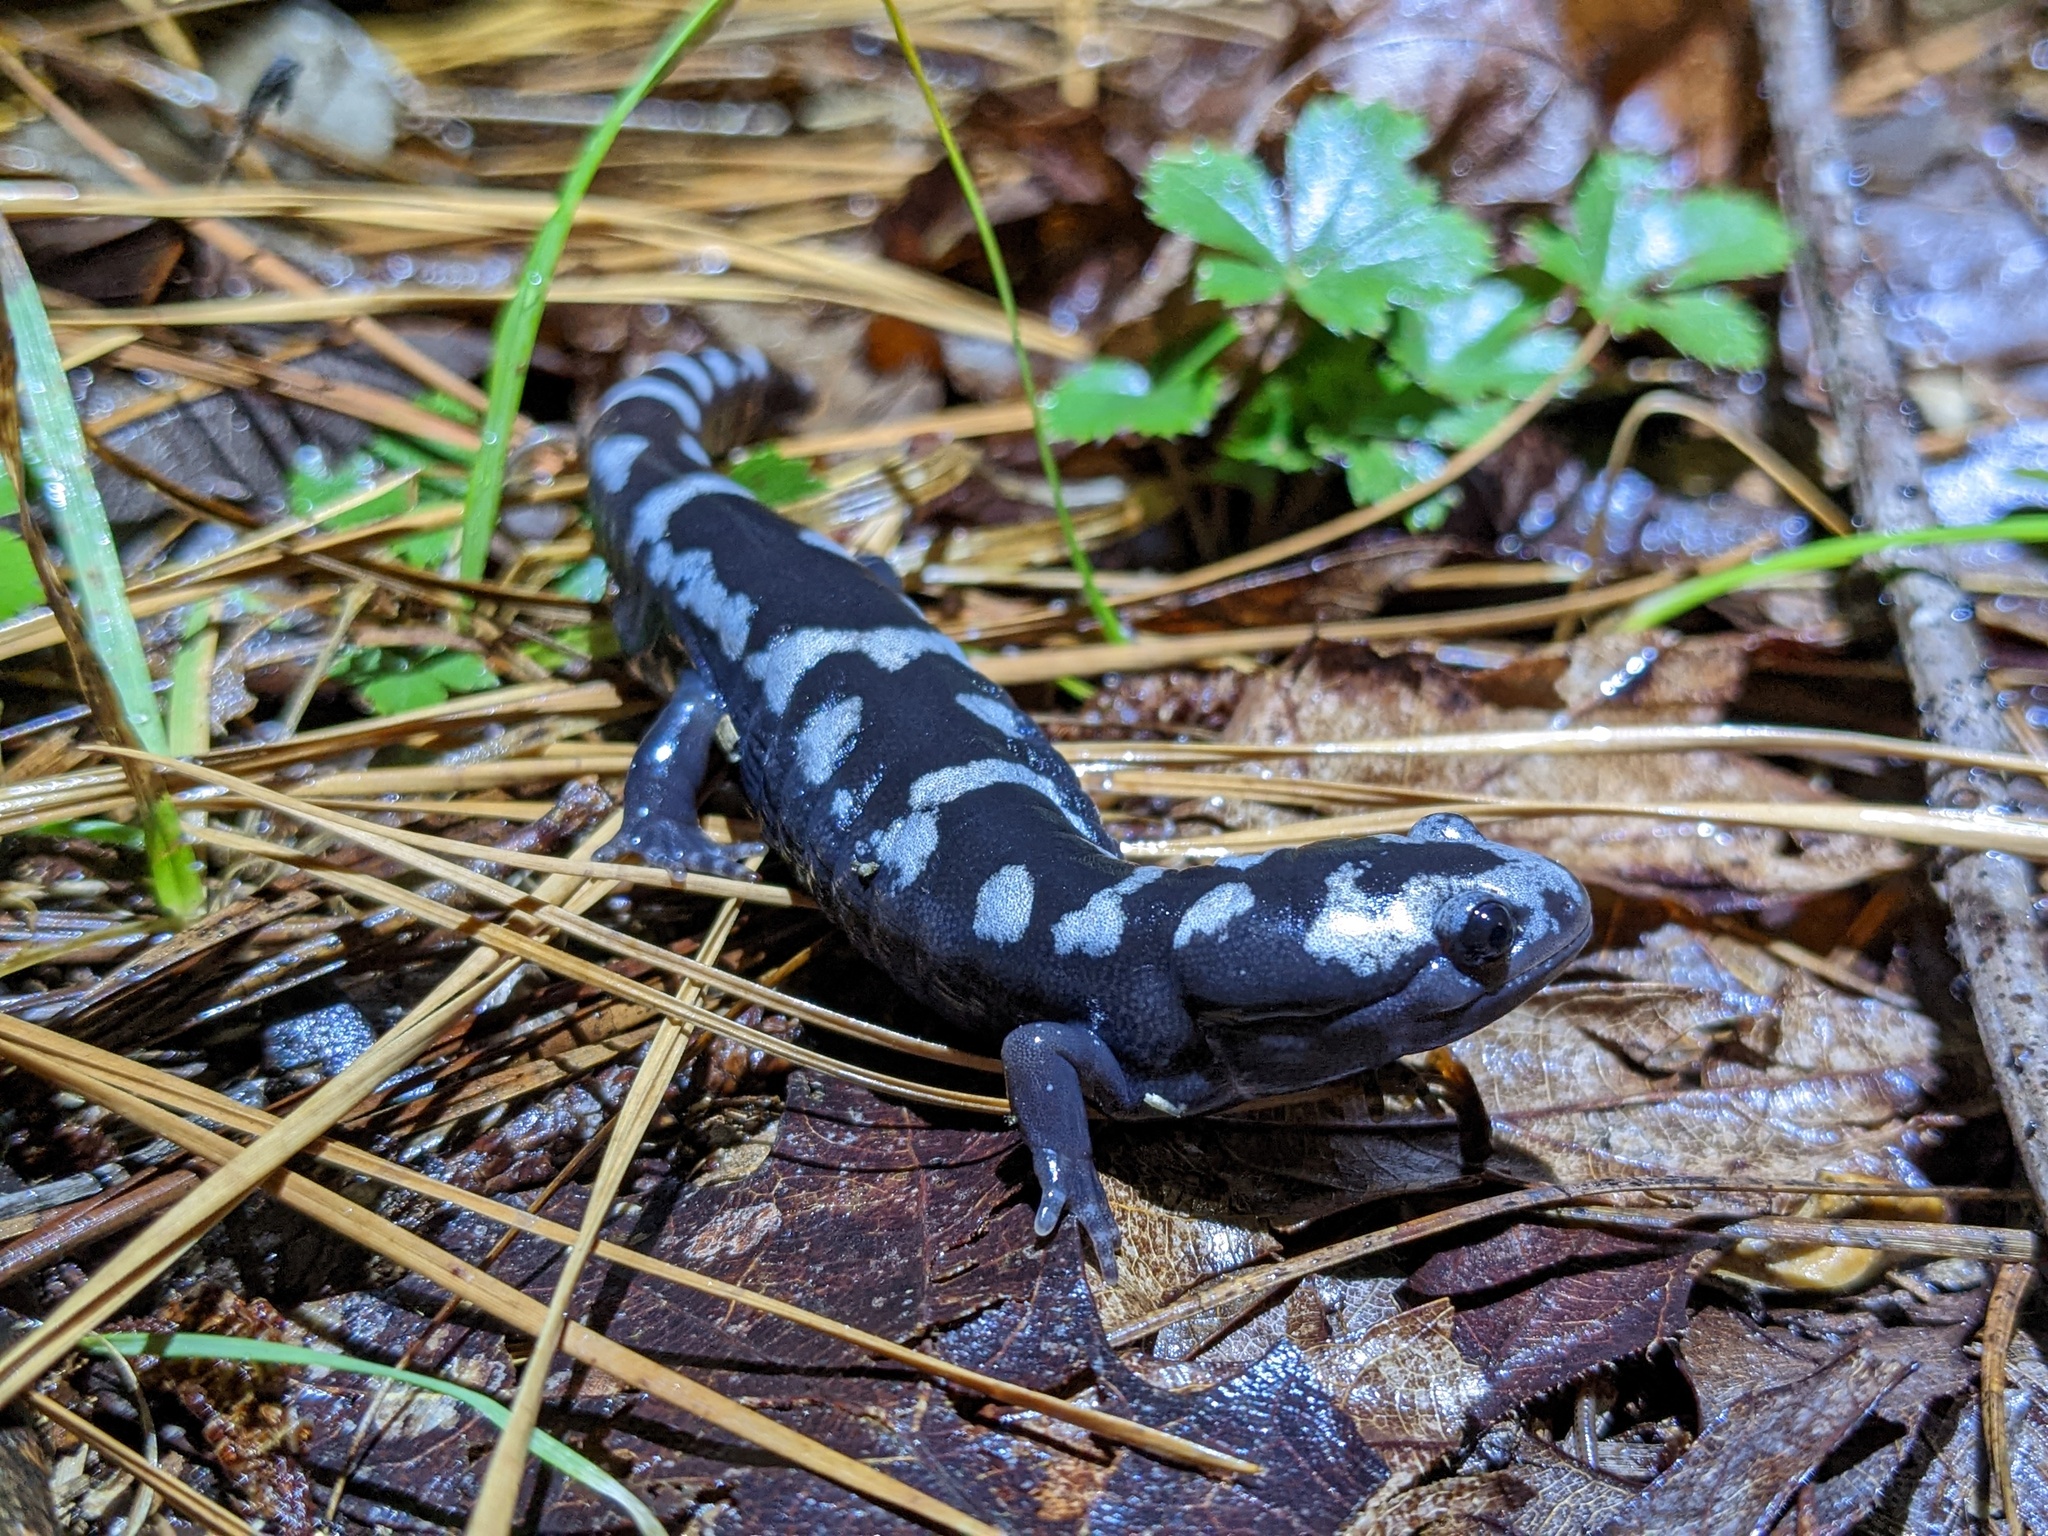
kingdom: Animalia
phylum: Chordata
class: Amphibia
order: Caudata
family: Ambystomatidae
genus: Ambystoma
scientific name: Ambystoma opacum
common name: Marbled salamander
